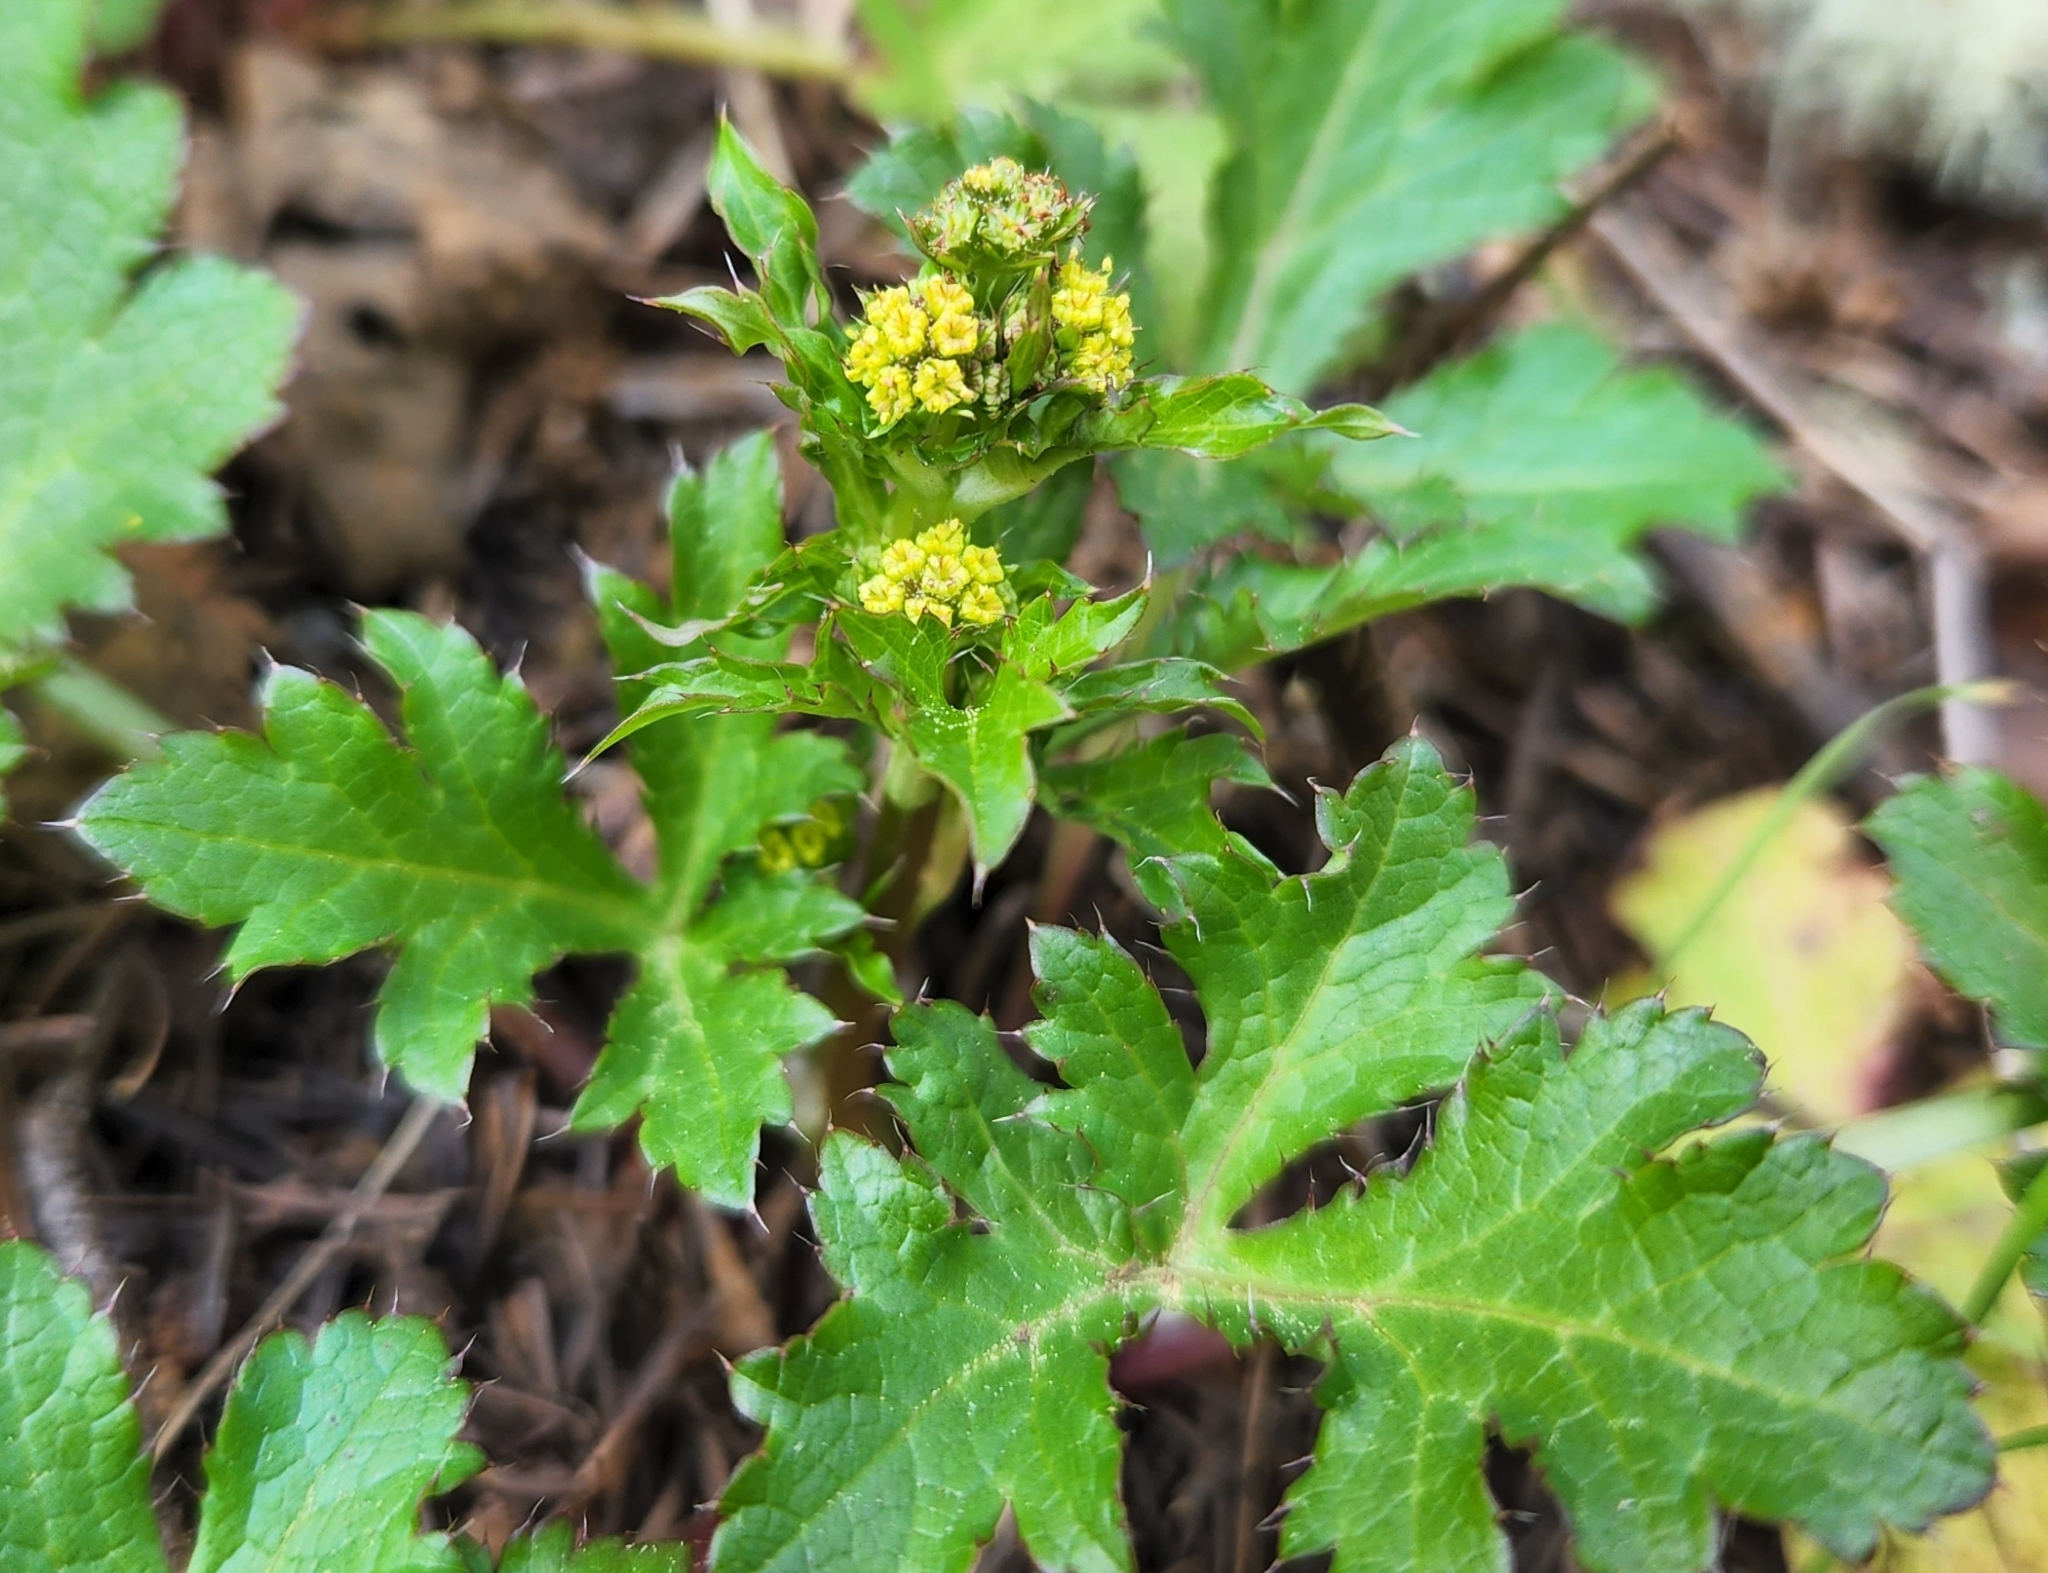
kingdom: Plantae
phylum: Tracheophyta
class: Magnoliopsida
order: Apiales
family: Apiaceae
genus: Sanicula
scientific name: Sanicula crassicaulis
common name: Western snakeroot
